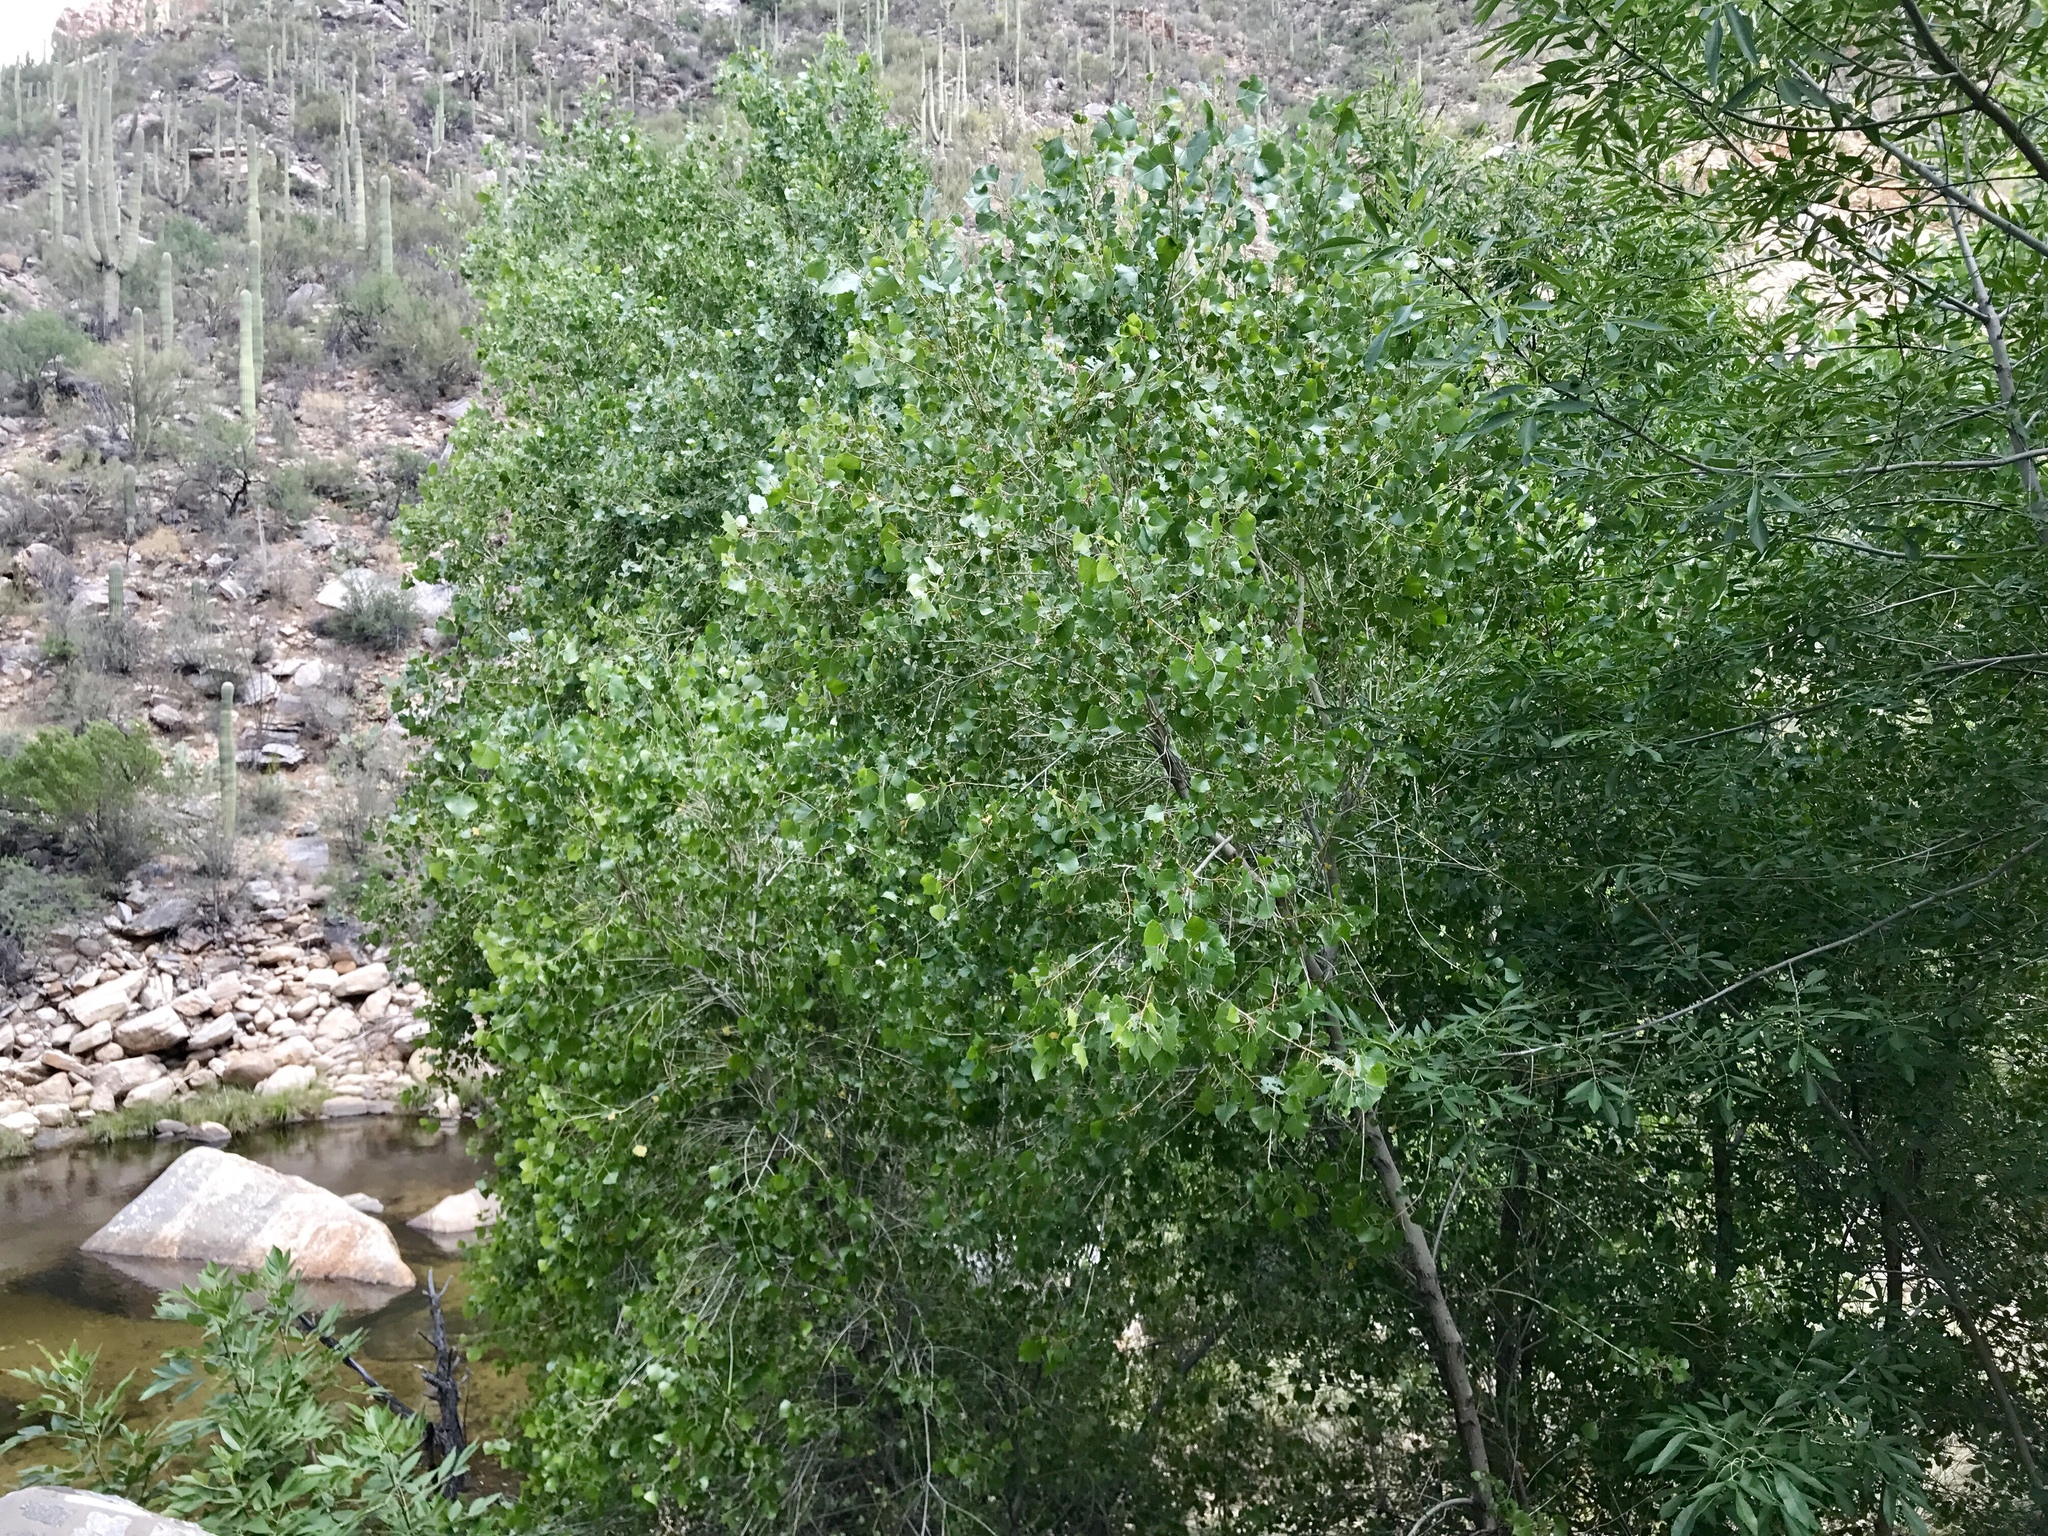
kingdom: Plantae
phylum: Tracheophyta
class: Magnoliopsida
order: Malpighiales
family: Salicaceae
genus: Populus
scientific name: Populus fremontii
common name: Fremont's cottonwood
